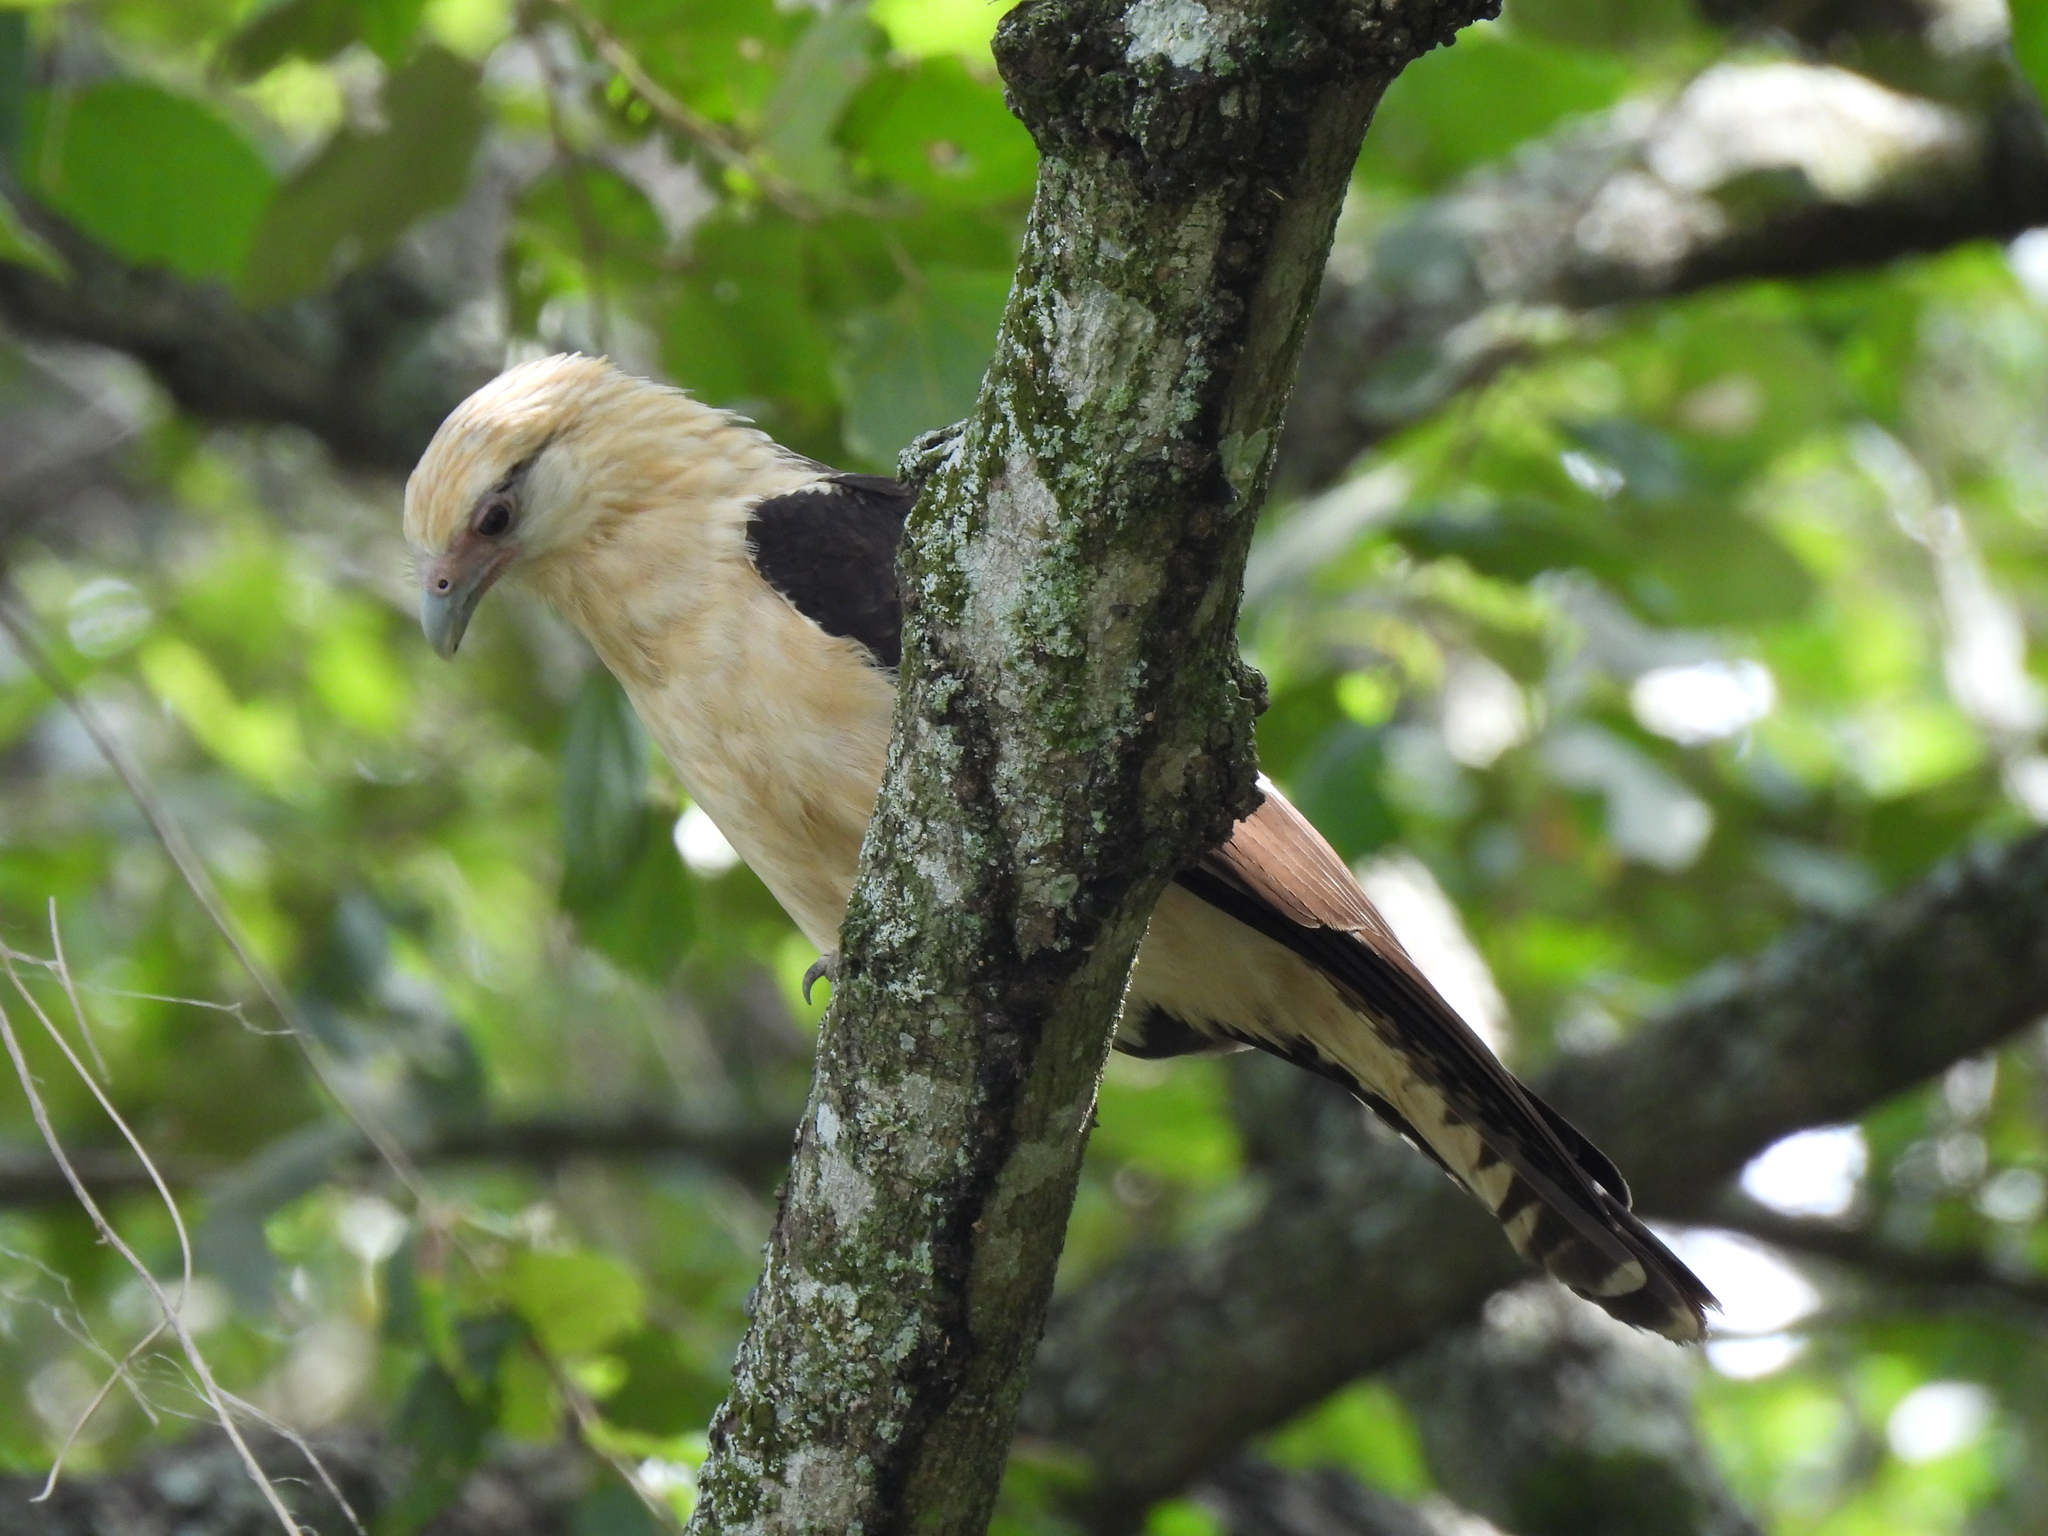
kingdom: Animalia
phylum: Chordata
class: Aves
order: Falconiformes
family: Falconidae
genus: Daptrius
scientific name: Daptrius
